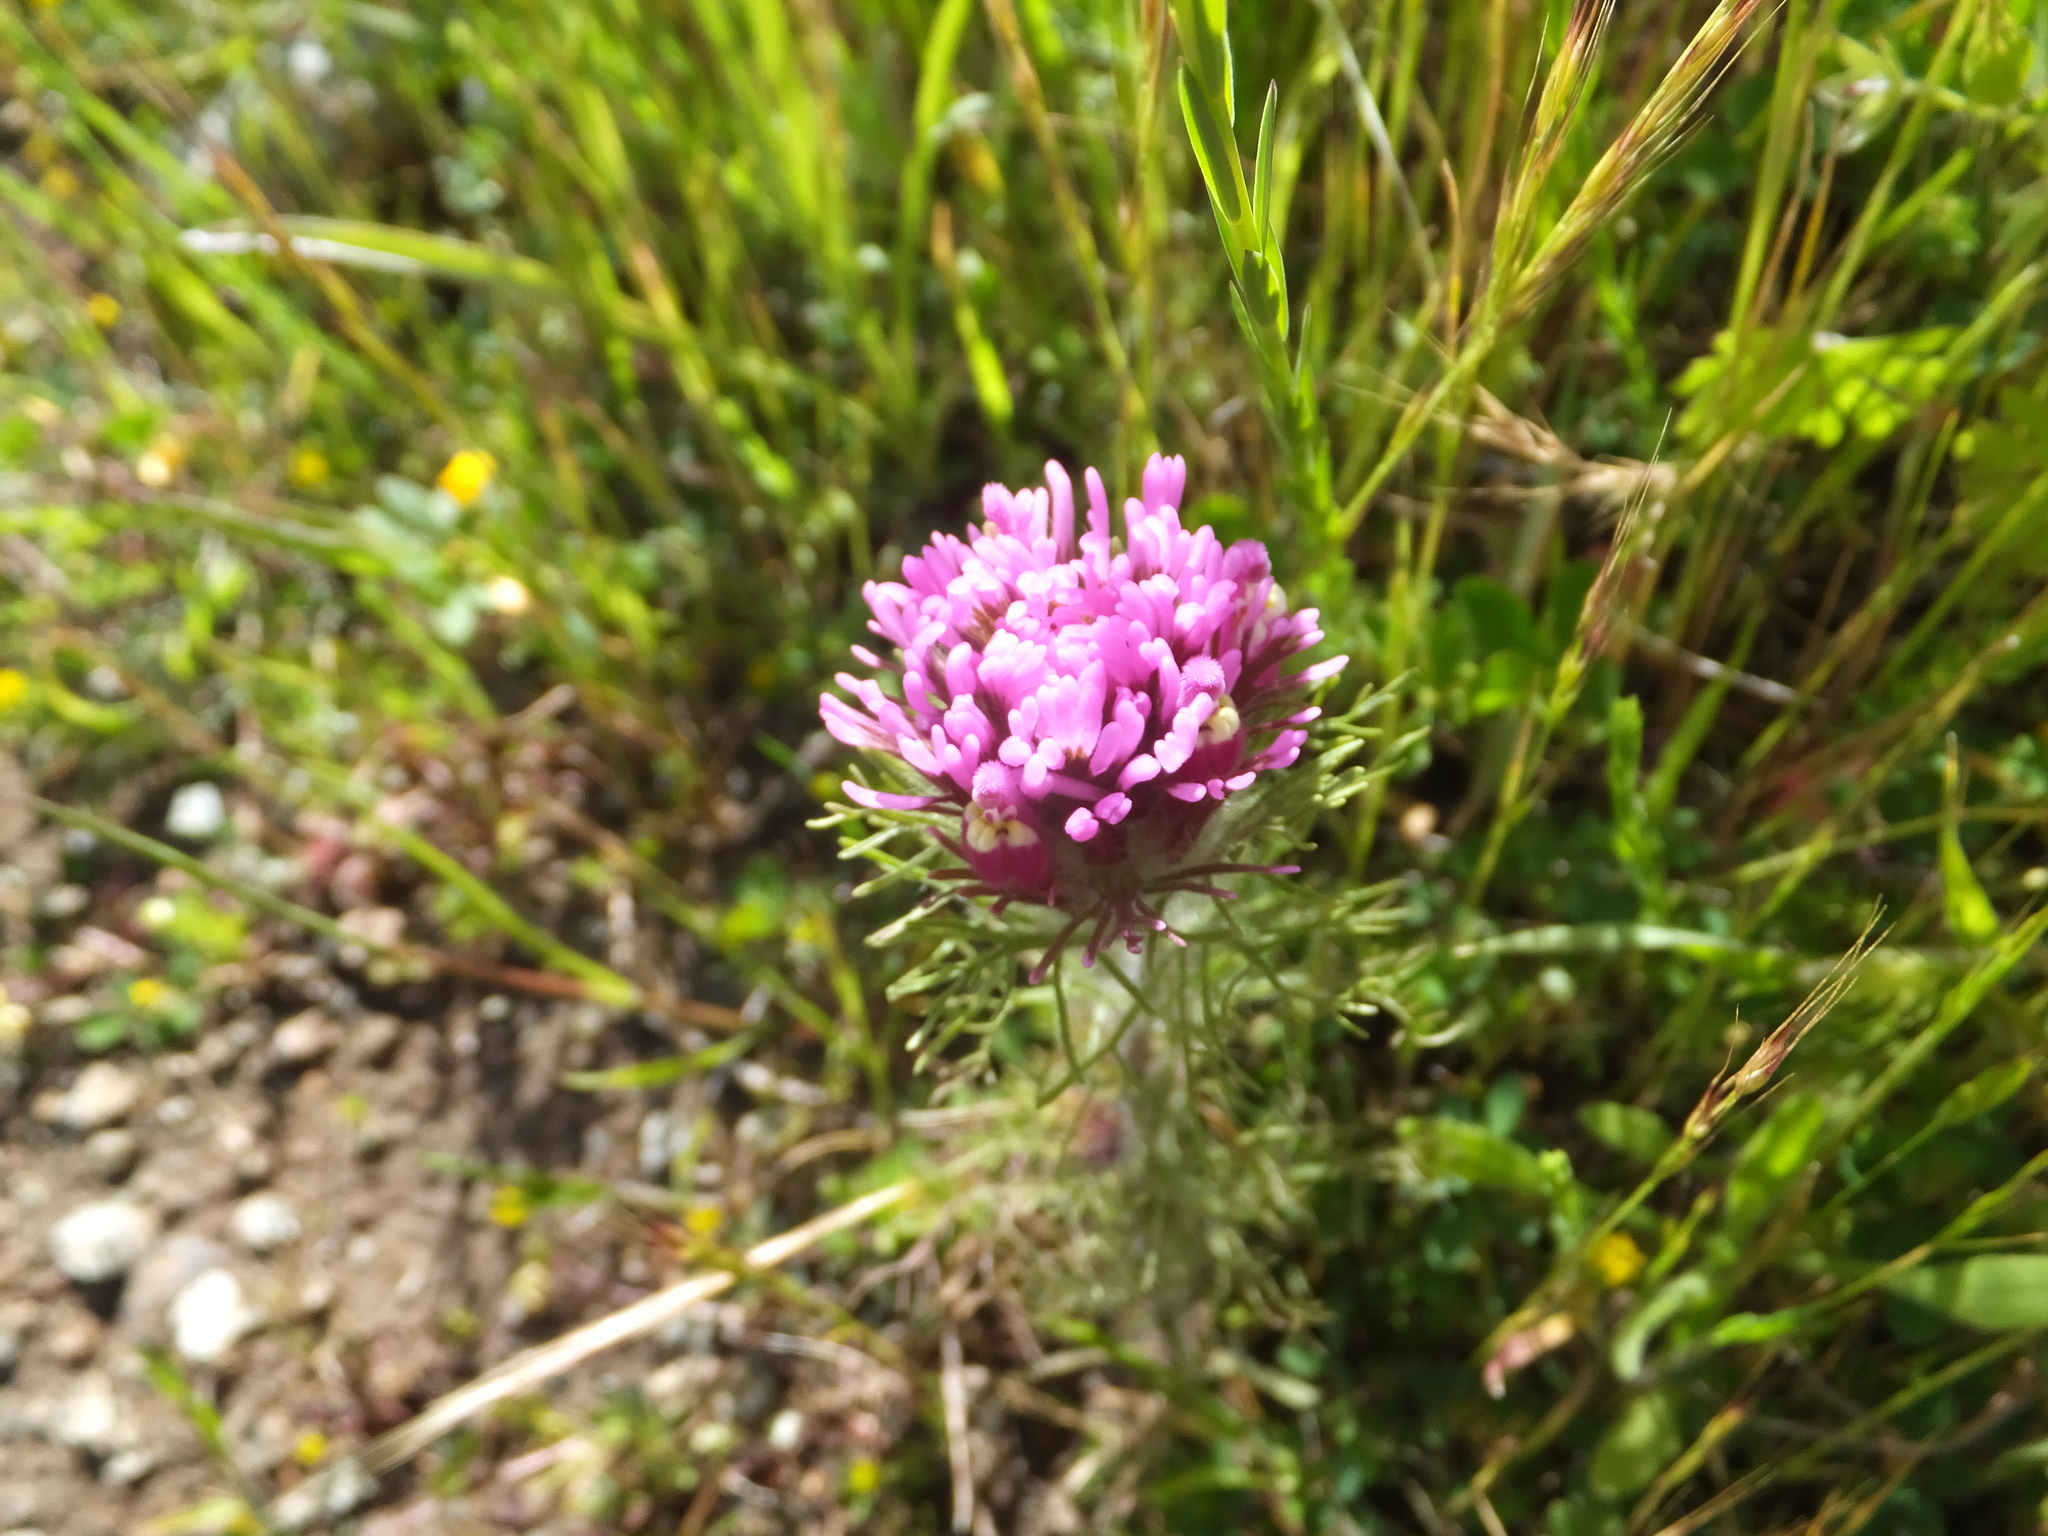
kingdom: Plantae
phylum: Tracheophyta
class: Magnoliopsida
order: Lamiales
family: Orobanchaceae
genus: Castilleja
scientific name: Castilleja exserta
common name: Purple owl-clover
